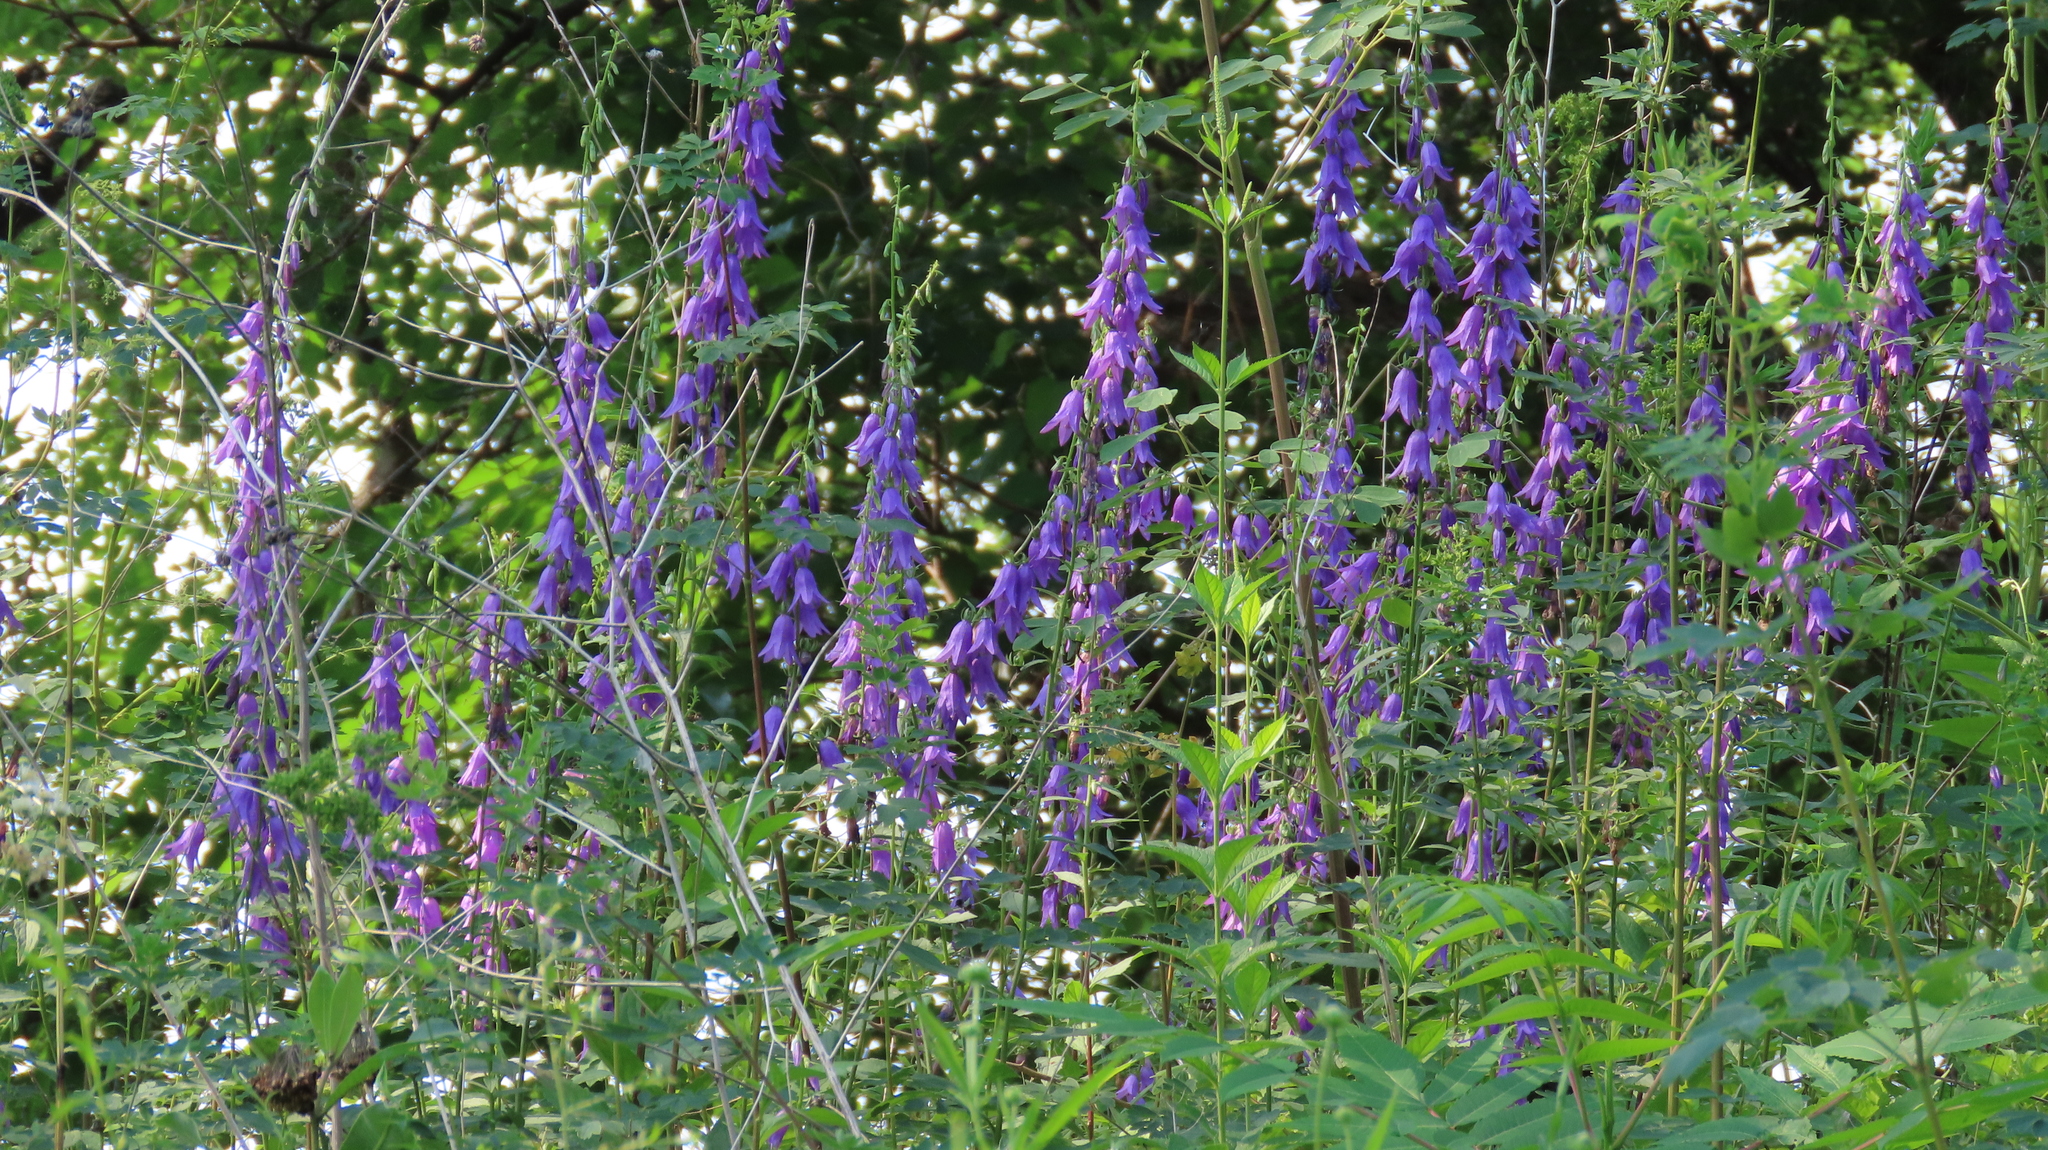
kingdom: Plantae
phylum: Tracheophyta
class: Magnoliopsida
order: Asterales
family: Campanulaceae
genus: Campanula
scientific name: Campanula rapunculoides
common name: Creeping bellflower
